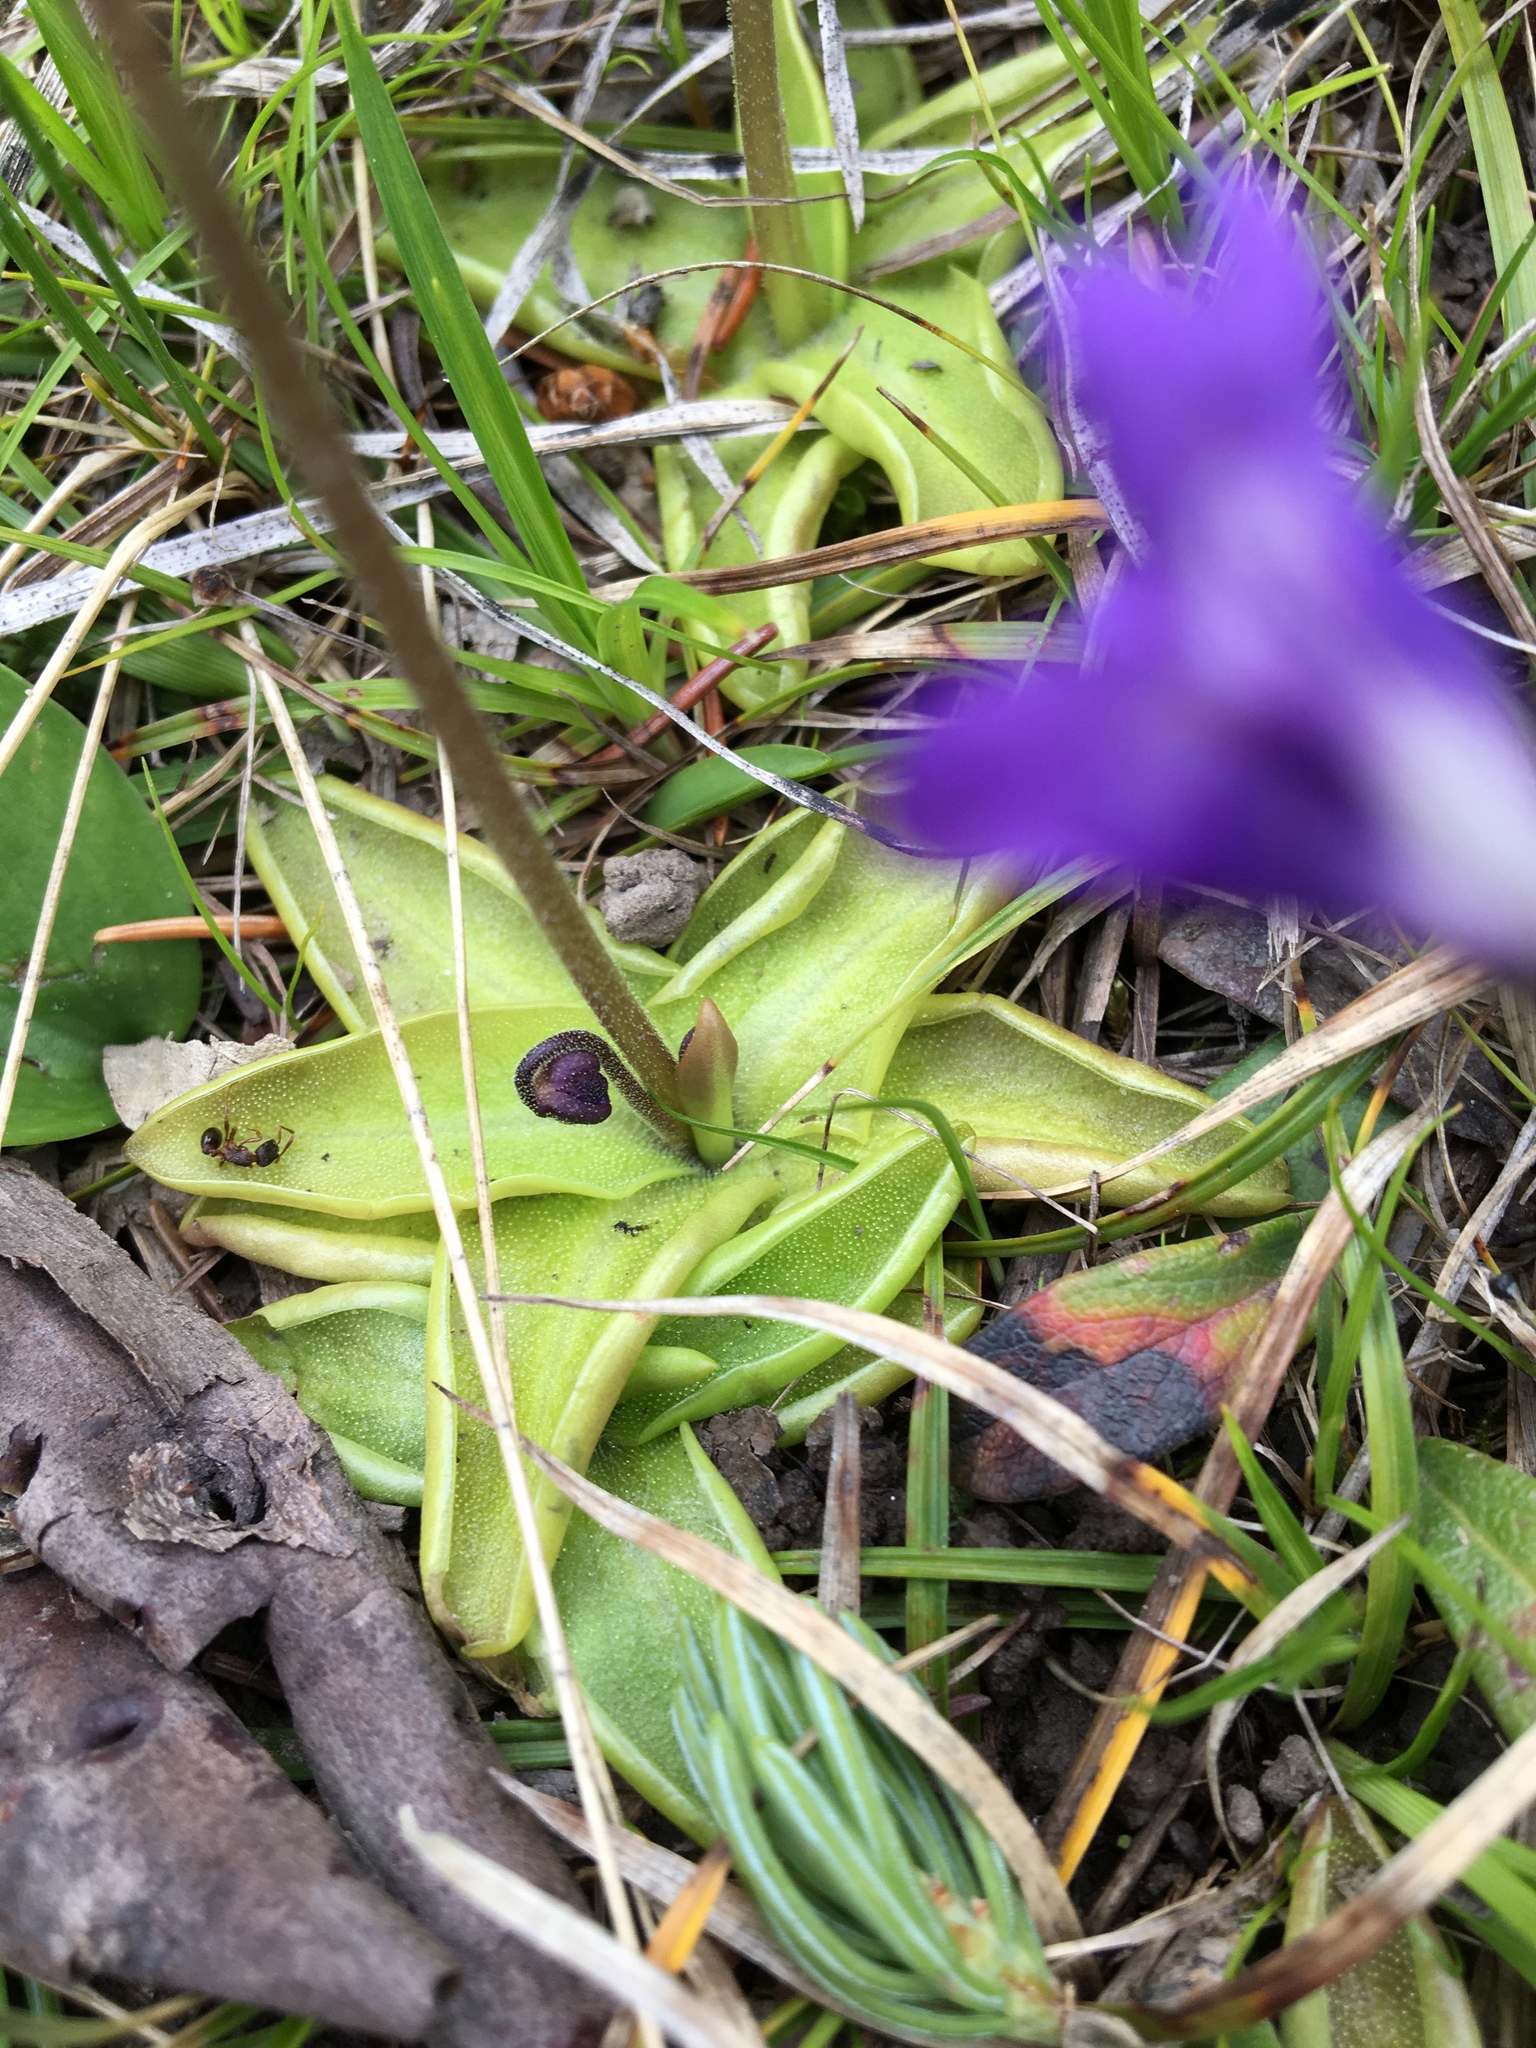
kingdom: Plantae
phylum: Tracheophyta
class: Magnoliopsida
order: Lamiales
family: Lentibulariaceae
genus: Pinguicula
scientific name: Pinguicula vulgaris
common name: Common butterwort
